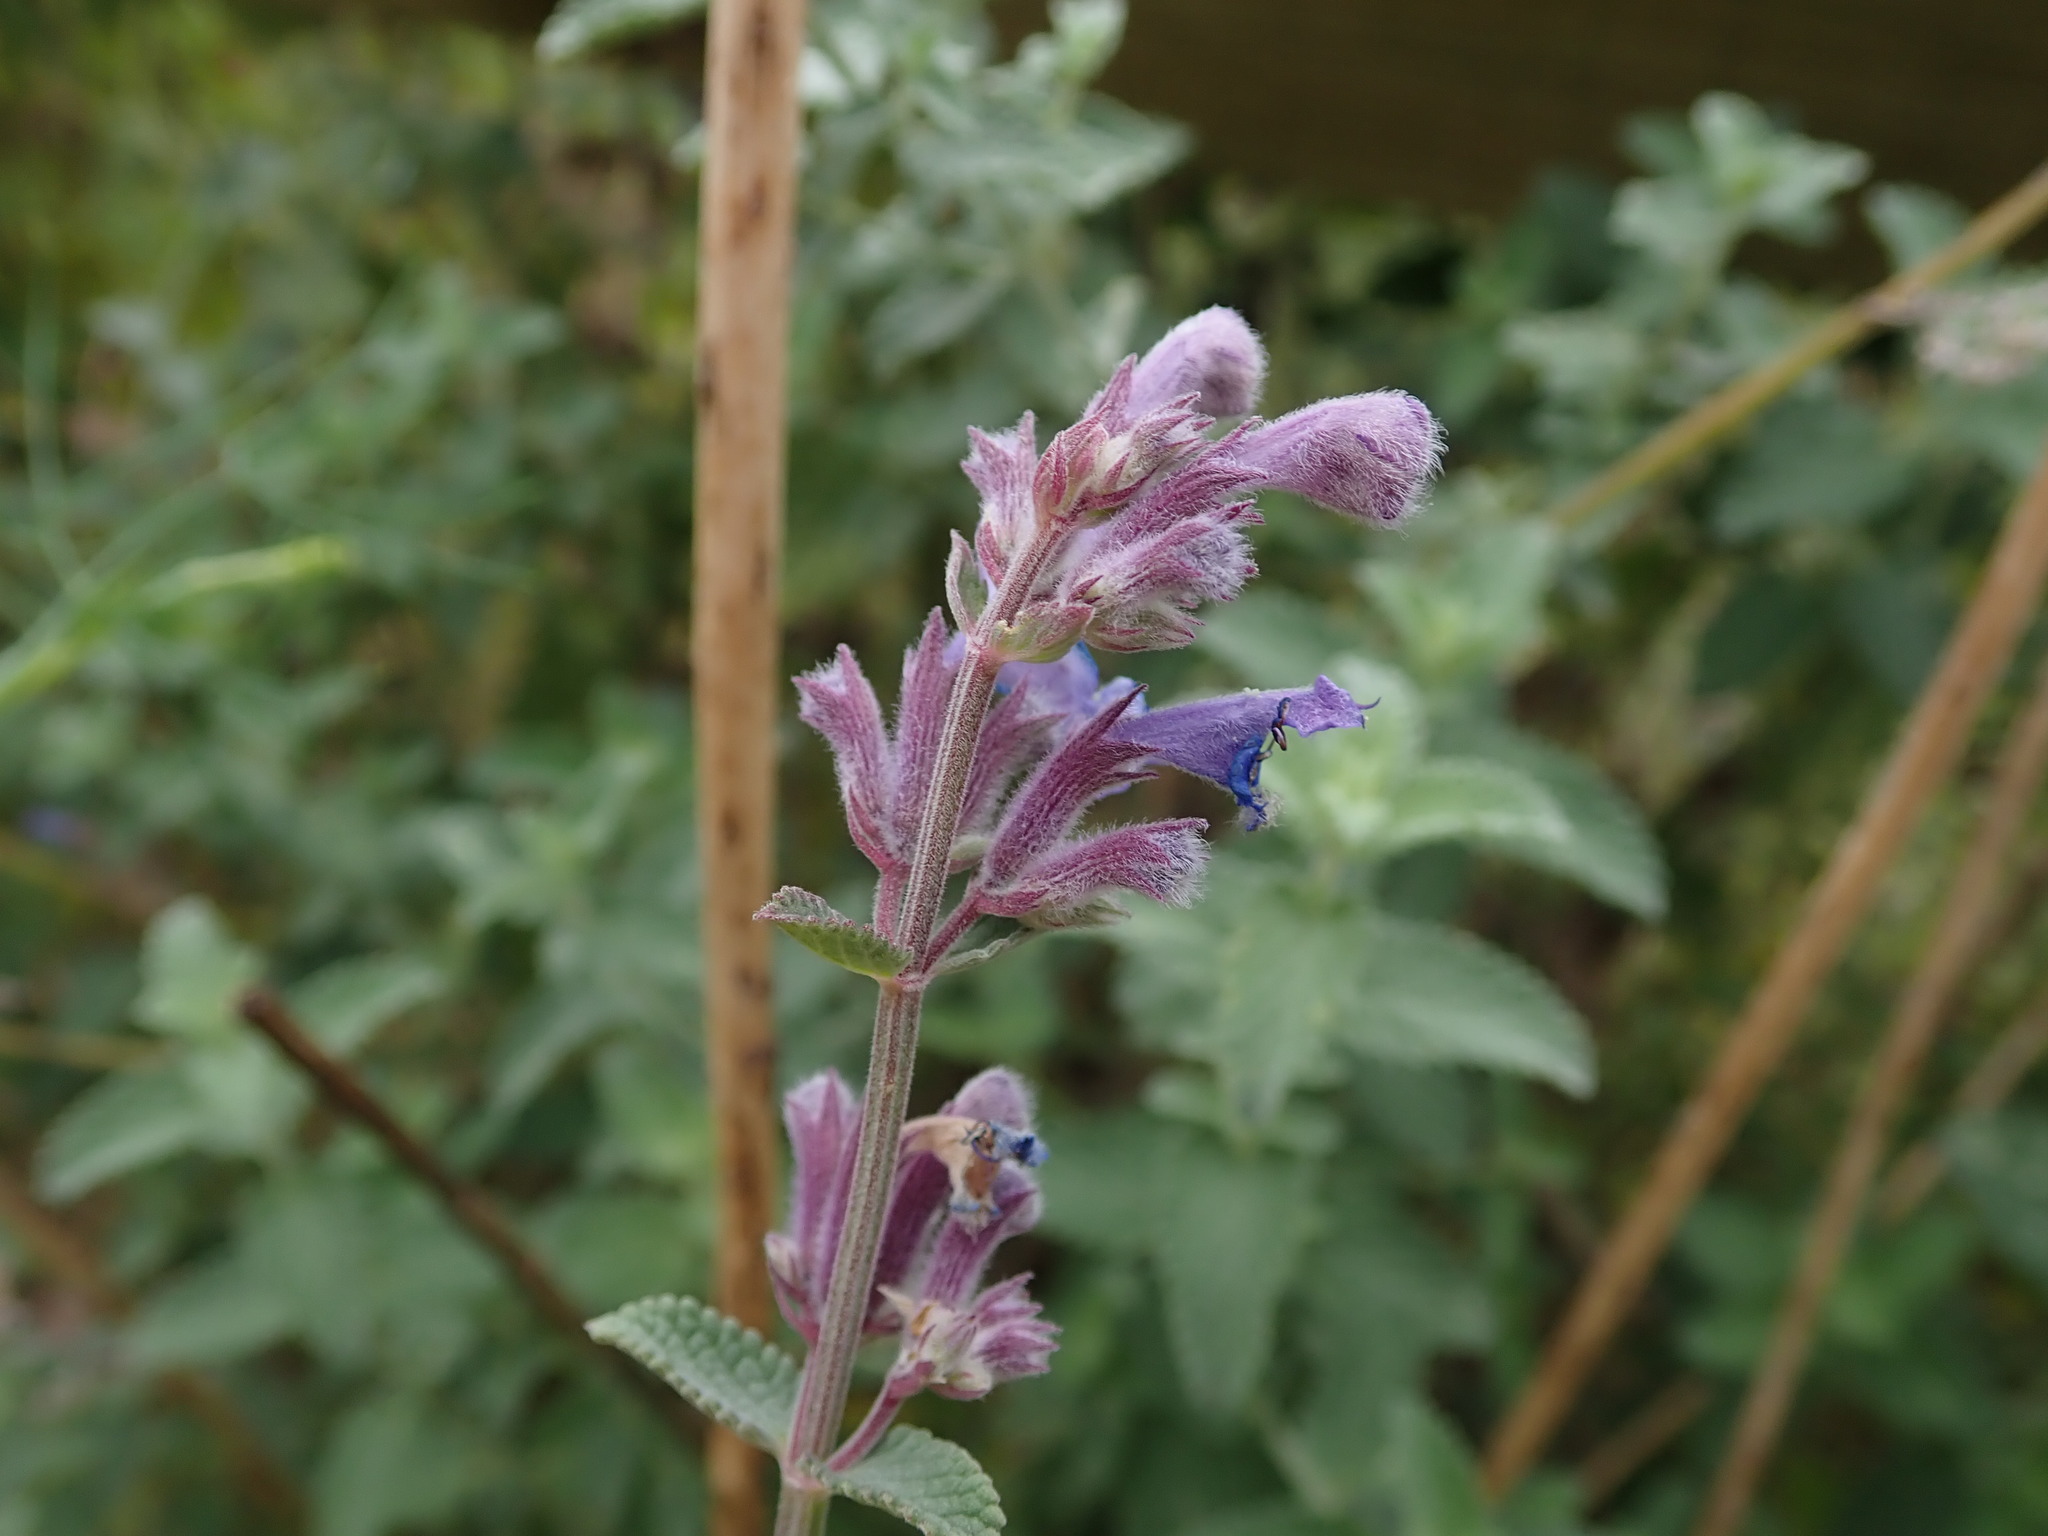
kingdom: Plantae
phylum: Tracheophyta
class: Magnoliopsida
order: Lamiales
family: Lamiaceae
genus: Nepeta
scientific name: Nepeta racemosa
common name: Raceme catnip
